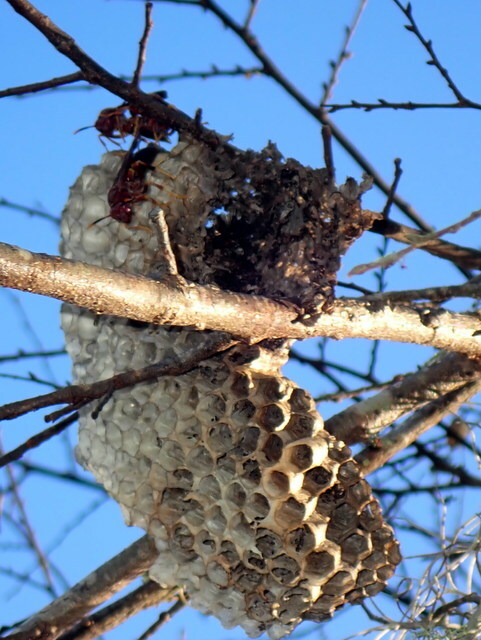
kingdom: Animalia
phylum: Arthropoda
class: Insecta
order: Hymenoptera
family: Eumenidae
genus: Polistes
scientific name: Polistes annularis
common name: Ringed paper wasp
